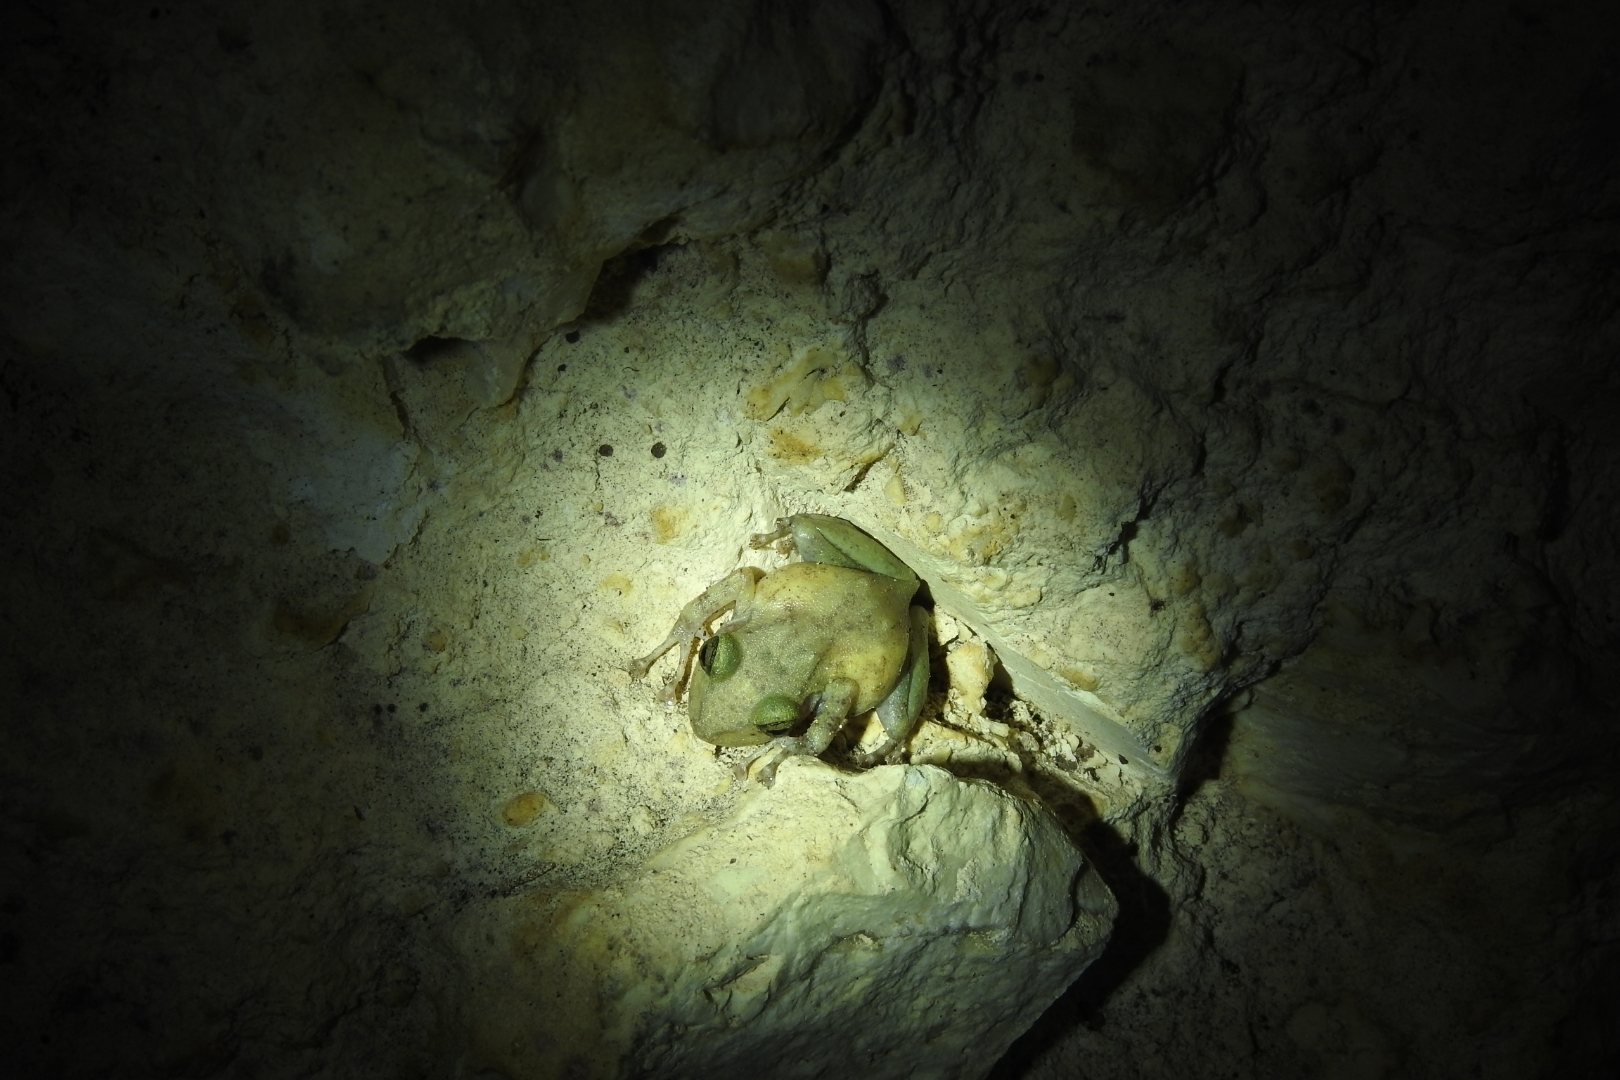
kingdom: Animalia
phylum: Chordata
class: Amphibia
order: Anura
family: Craugastoridae
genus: Craugastor
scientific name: Craugastor yucatanensis
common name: Yucatan rainfrog
